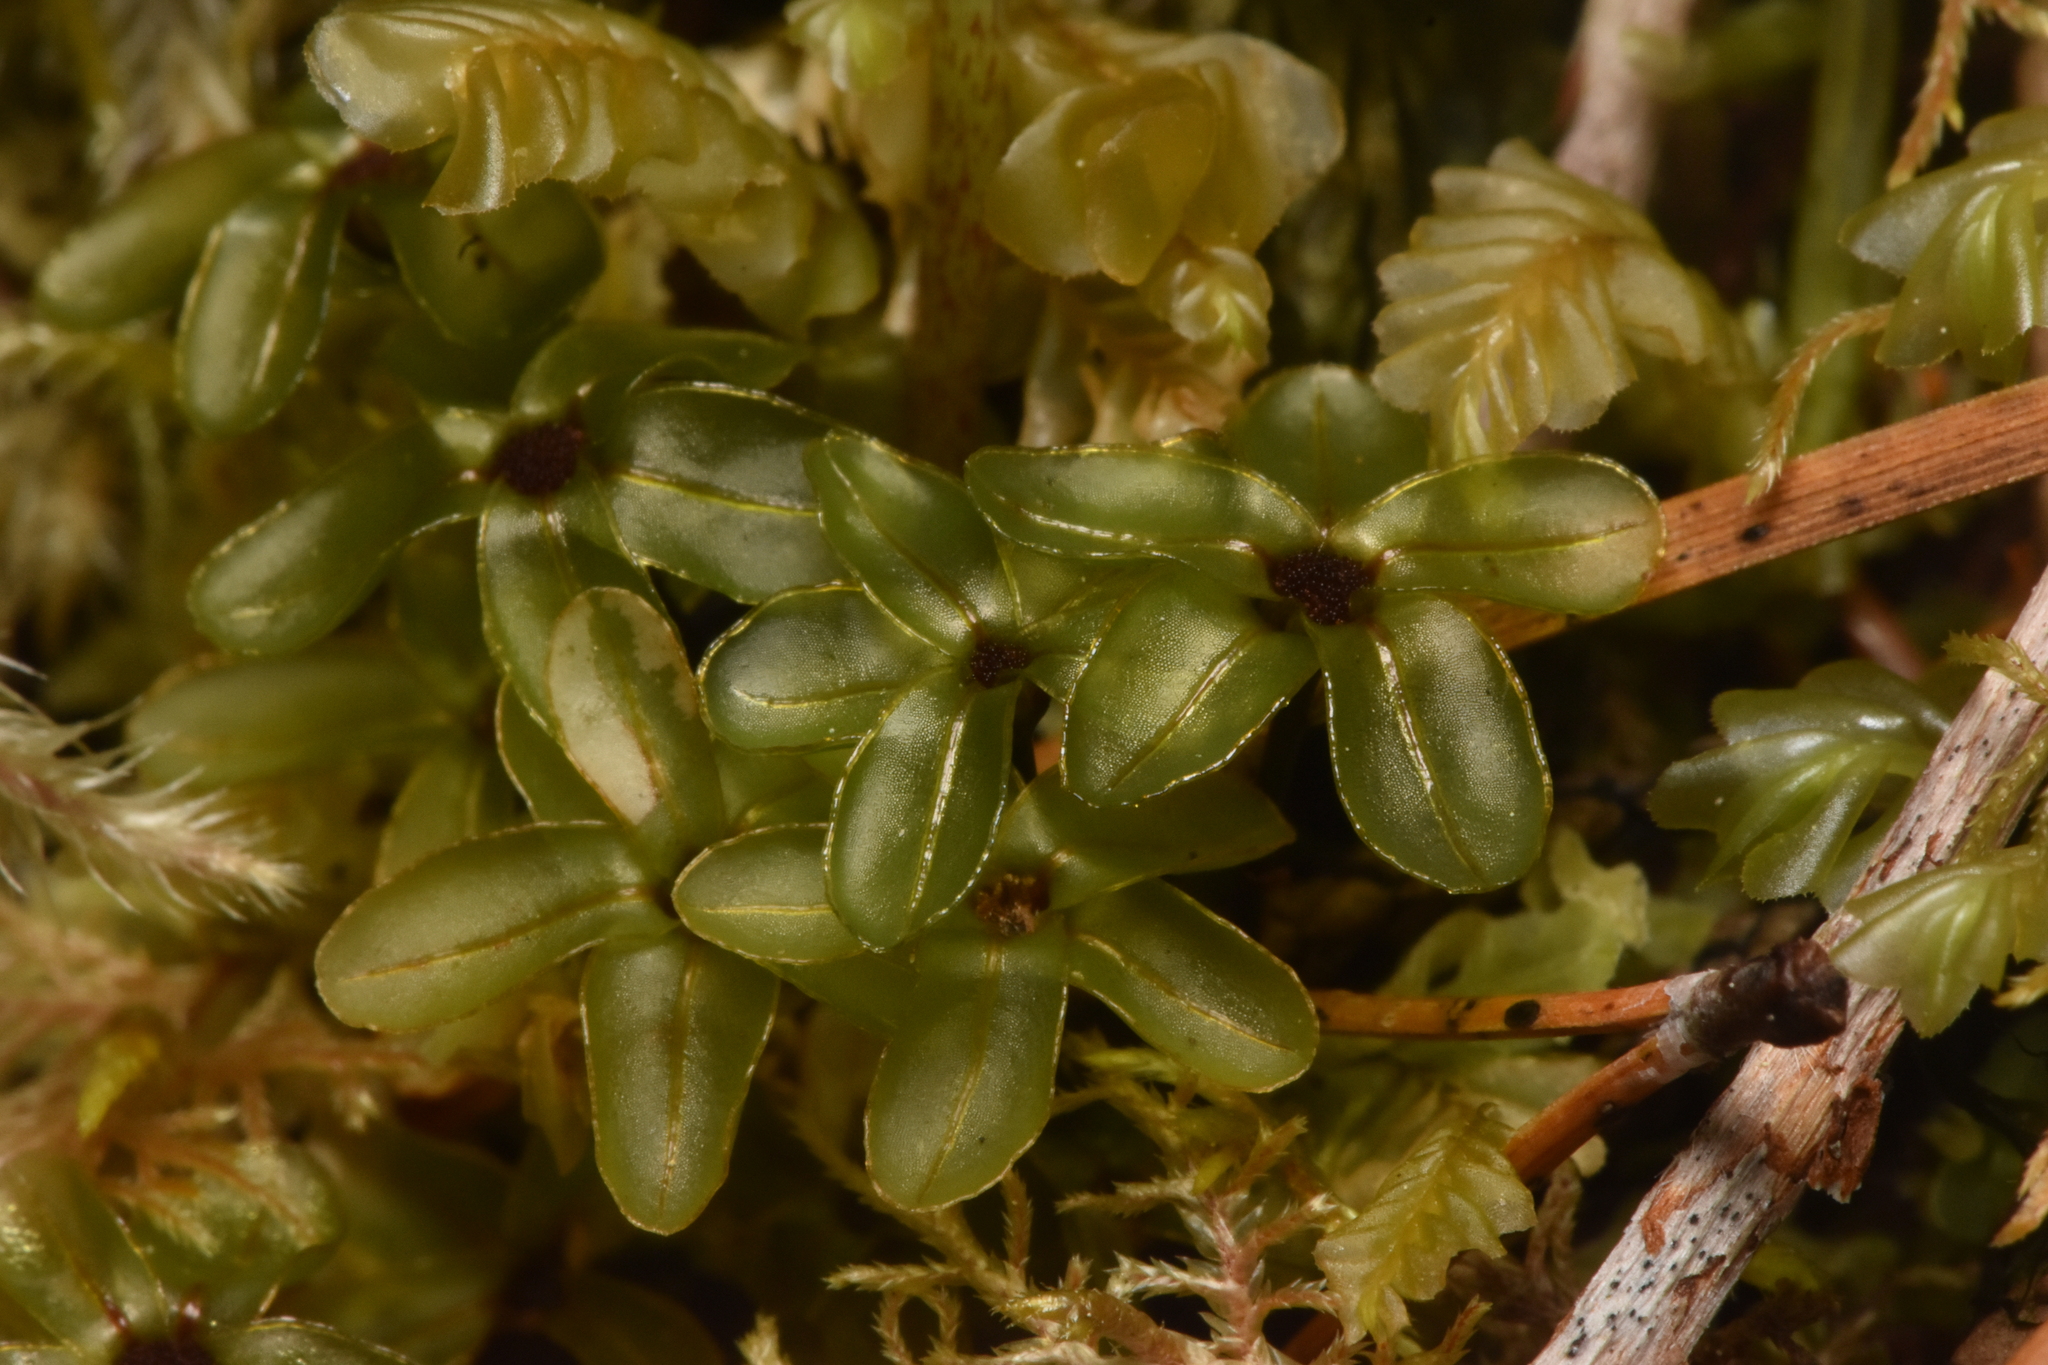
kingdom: Plantae
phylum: Bryophyta
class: Bryopsida
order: Bryales
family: Mniaceae
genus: Rhizomnium
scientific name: Rhizomnium glabrescens
